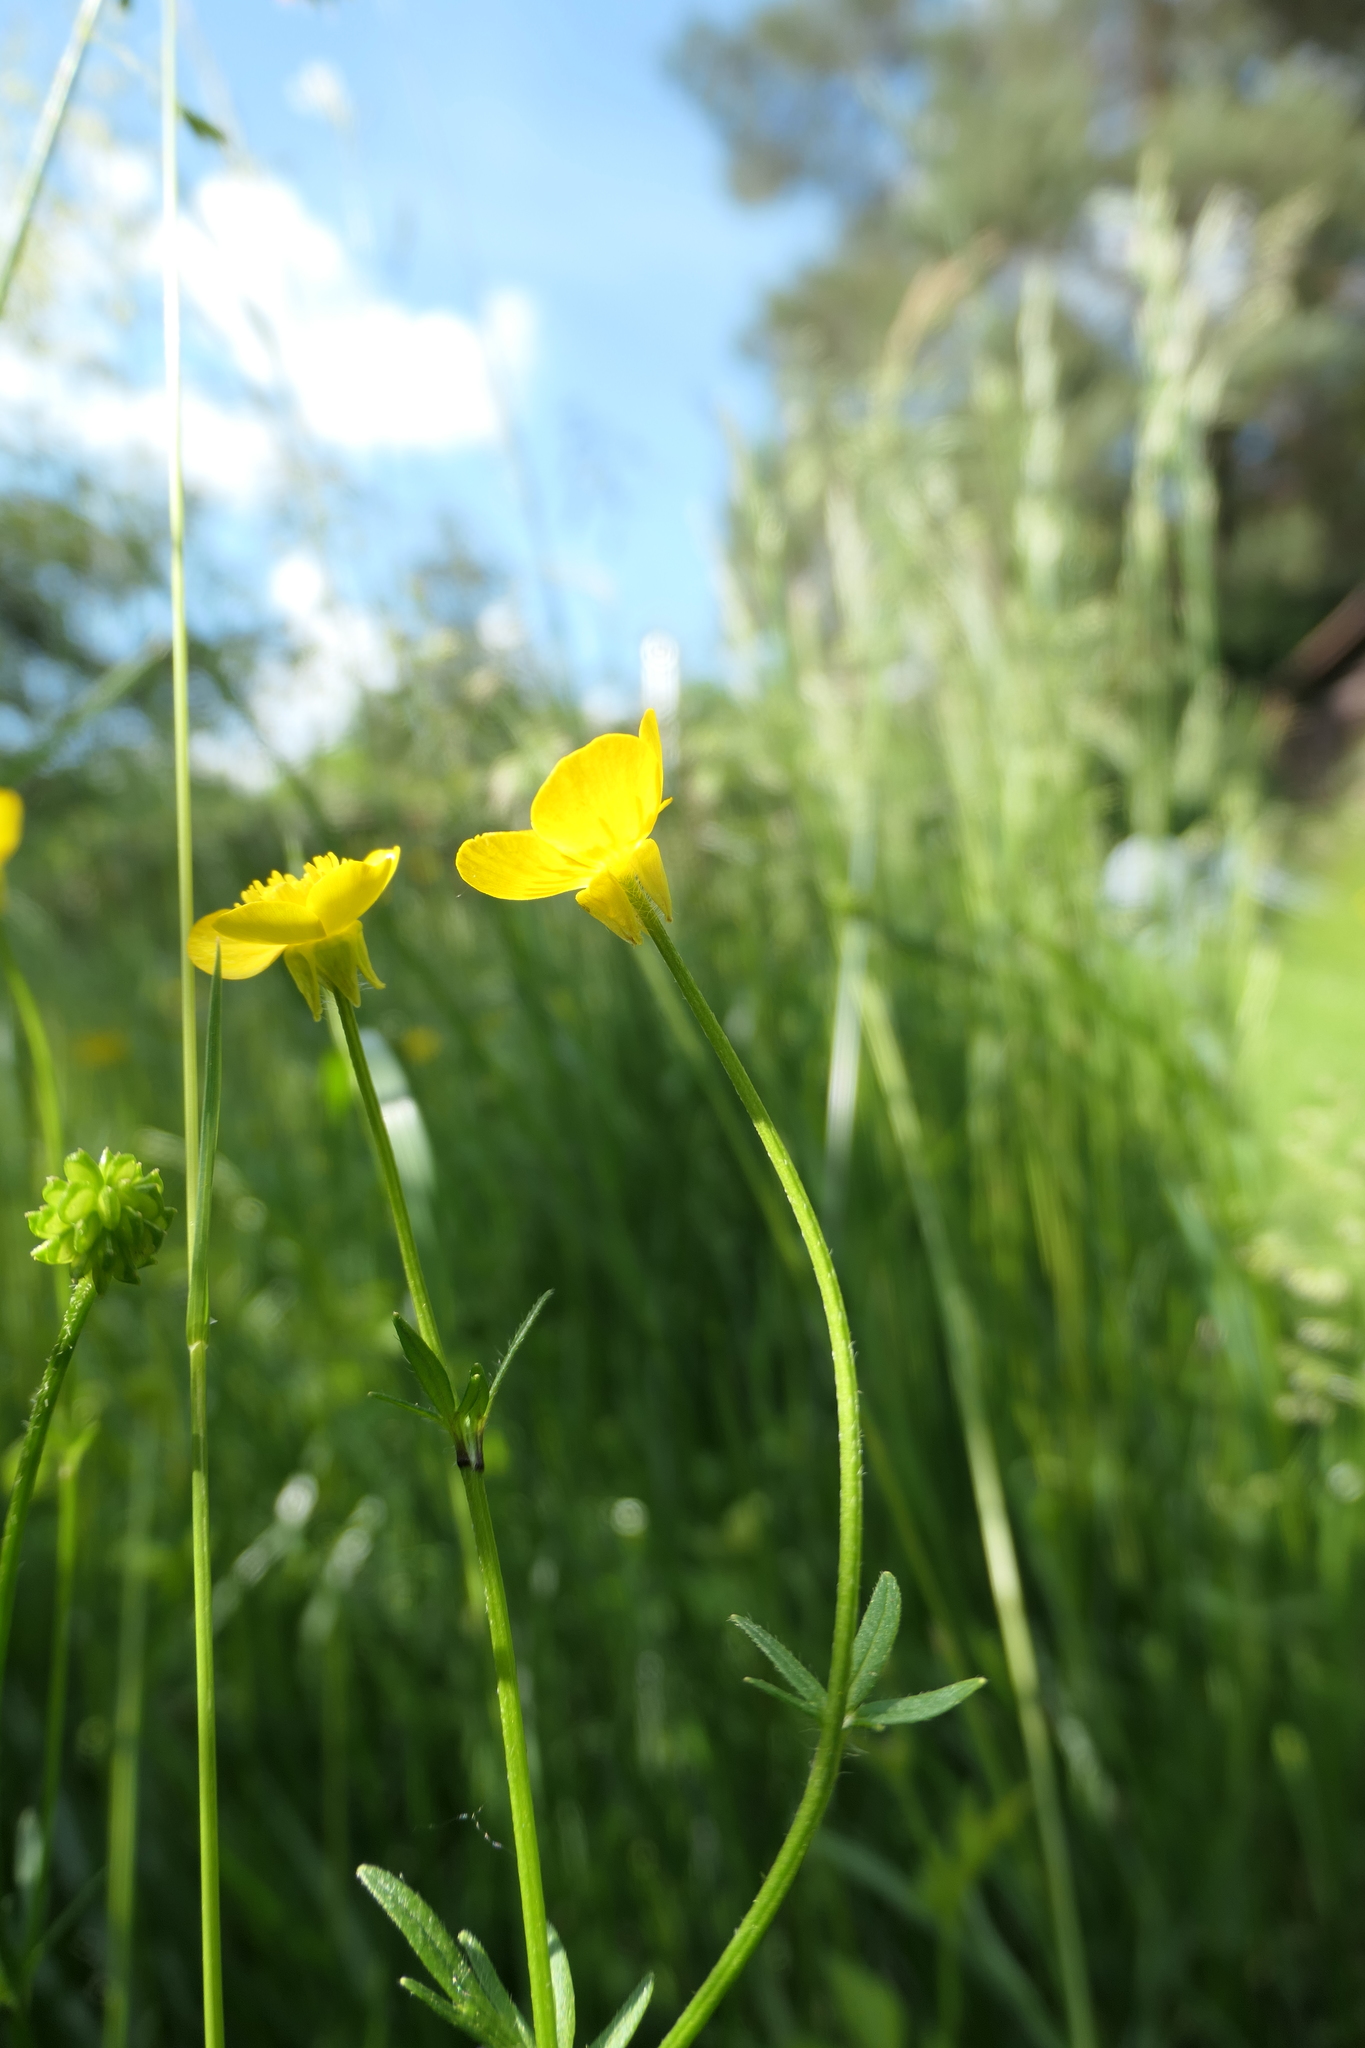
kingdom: Plantae
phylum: Tracheophyta
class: Magnoliopsida
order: Ranunculales
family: Ranunculaceae
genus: Ranunculus
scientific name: Ranunculus bulbosus
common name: Bulbous buttercup
